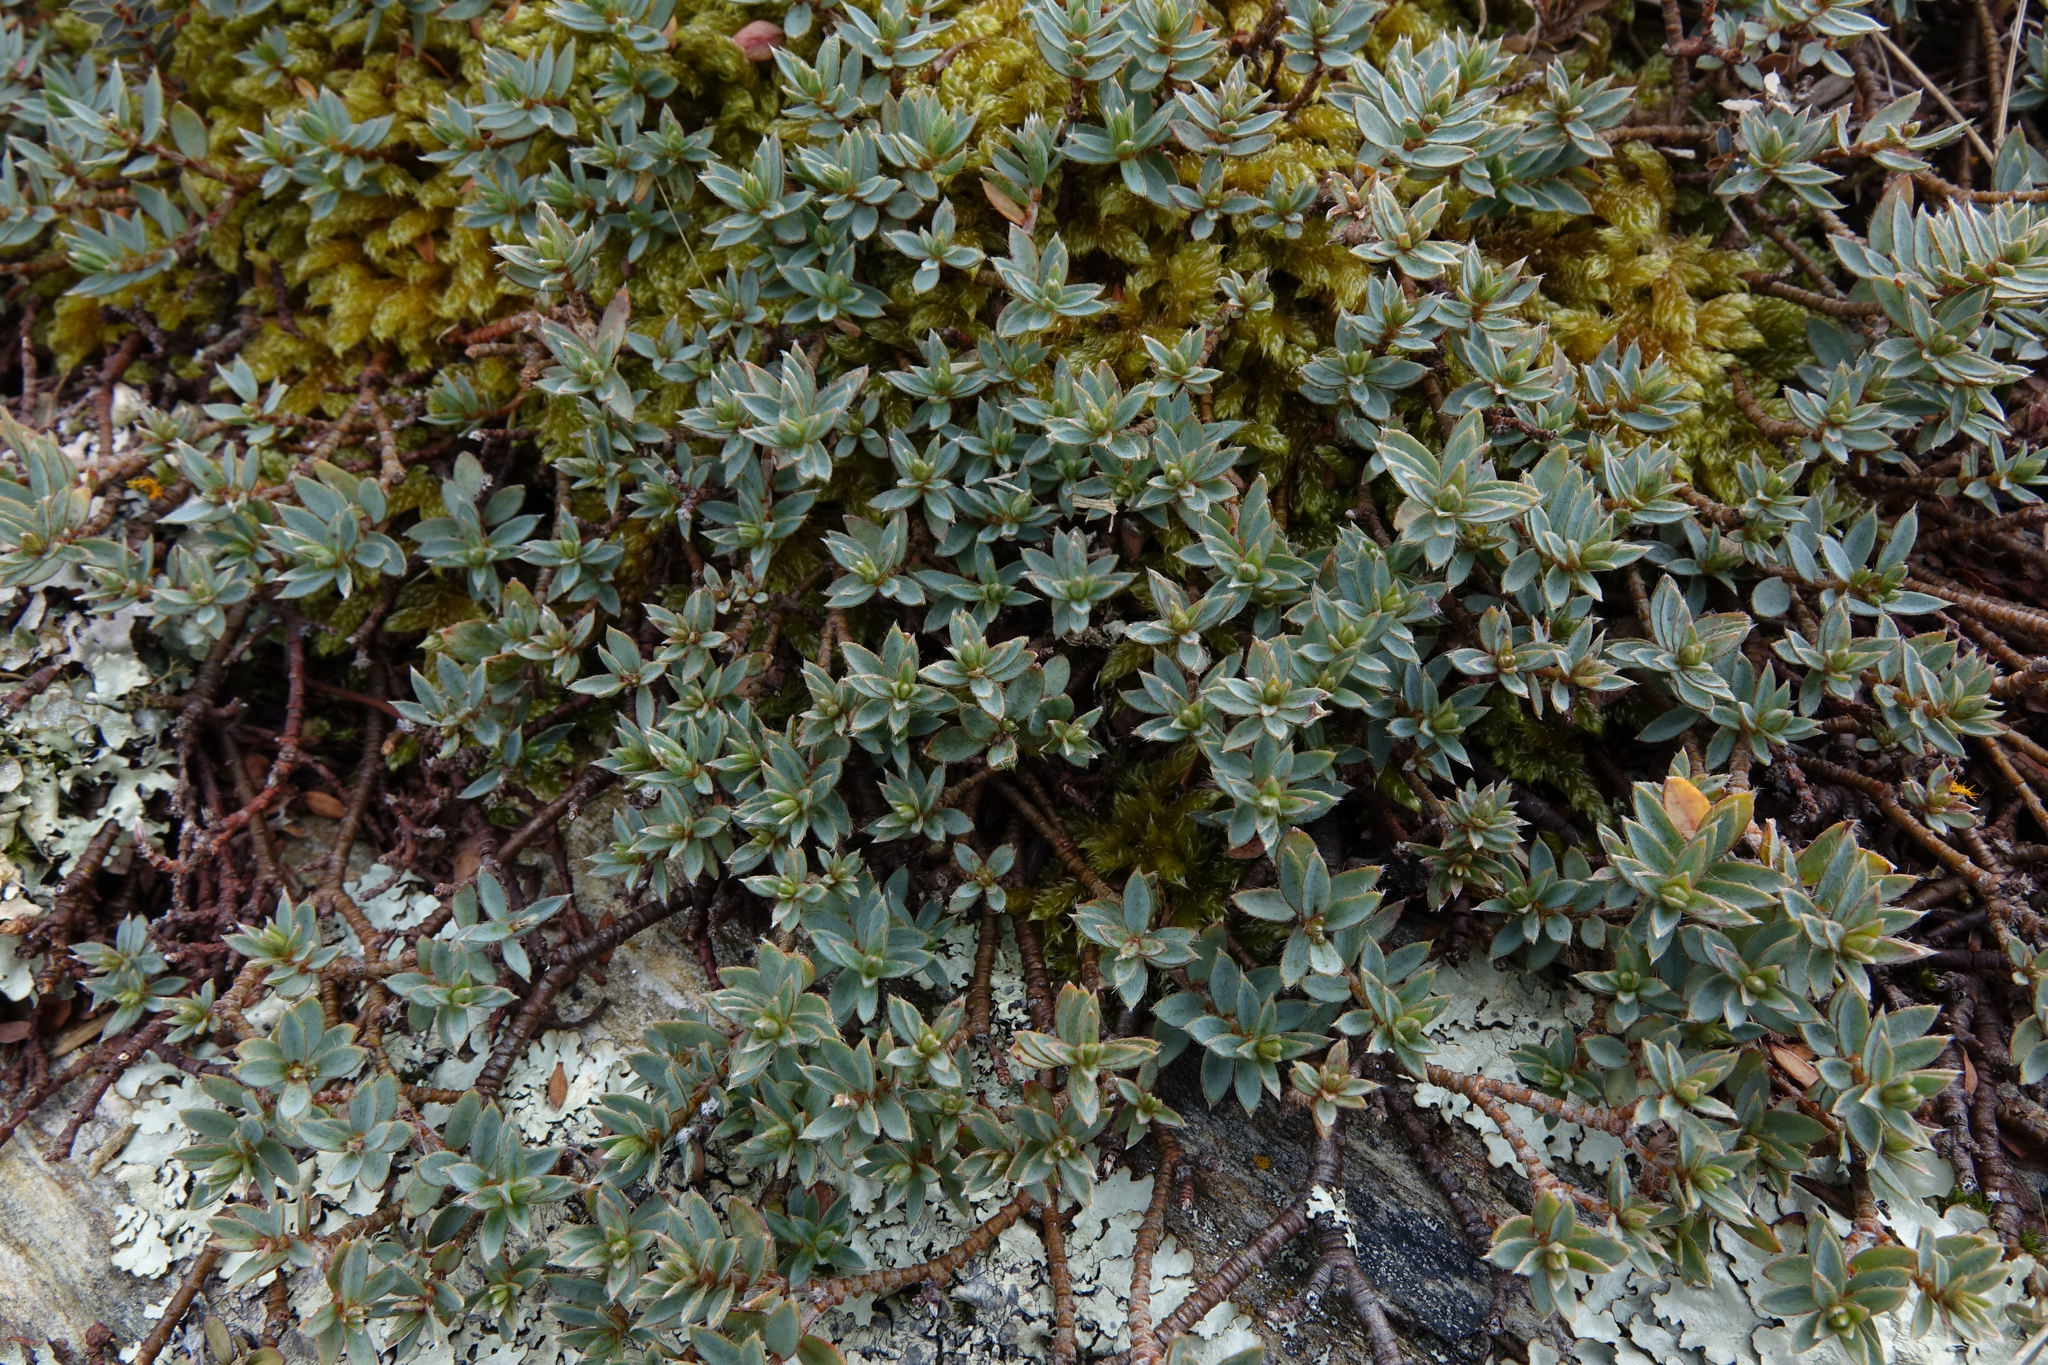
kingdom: Plantae
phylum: Tracheophyta
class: Magnoliopsida
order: Malvales
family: Thymelaeaceae
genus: Pimelea
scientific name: Pimelea oreophila
